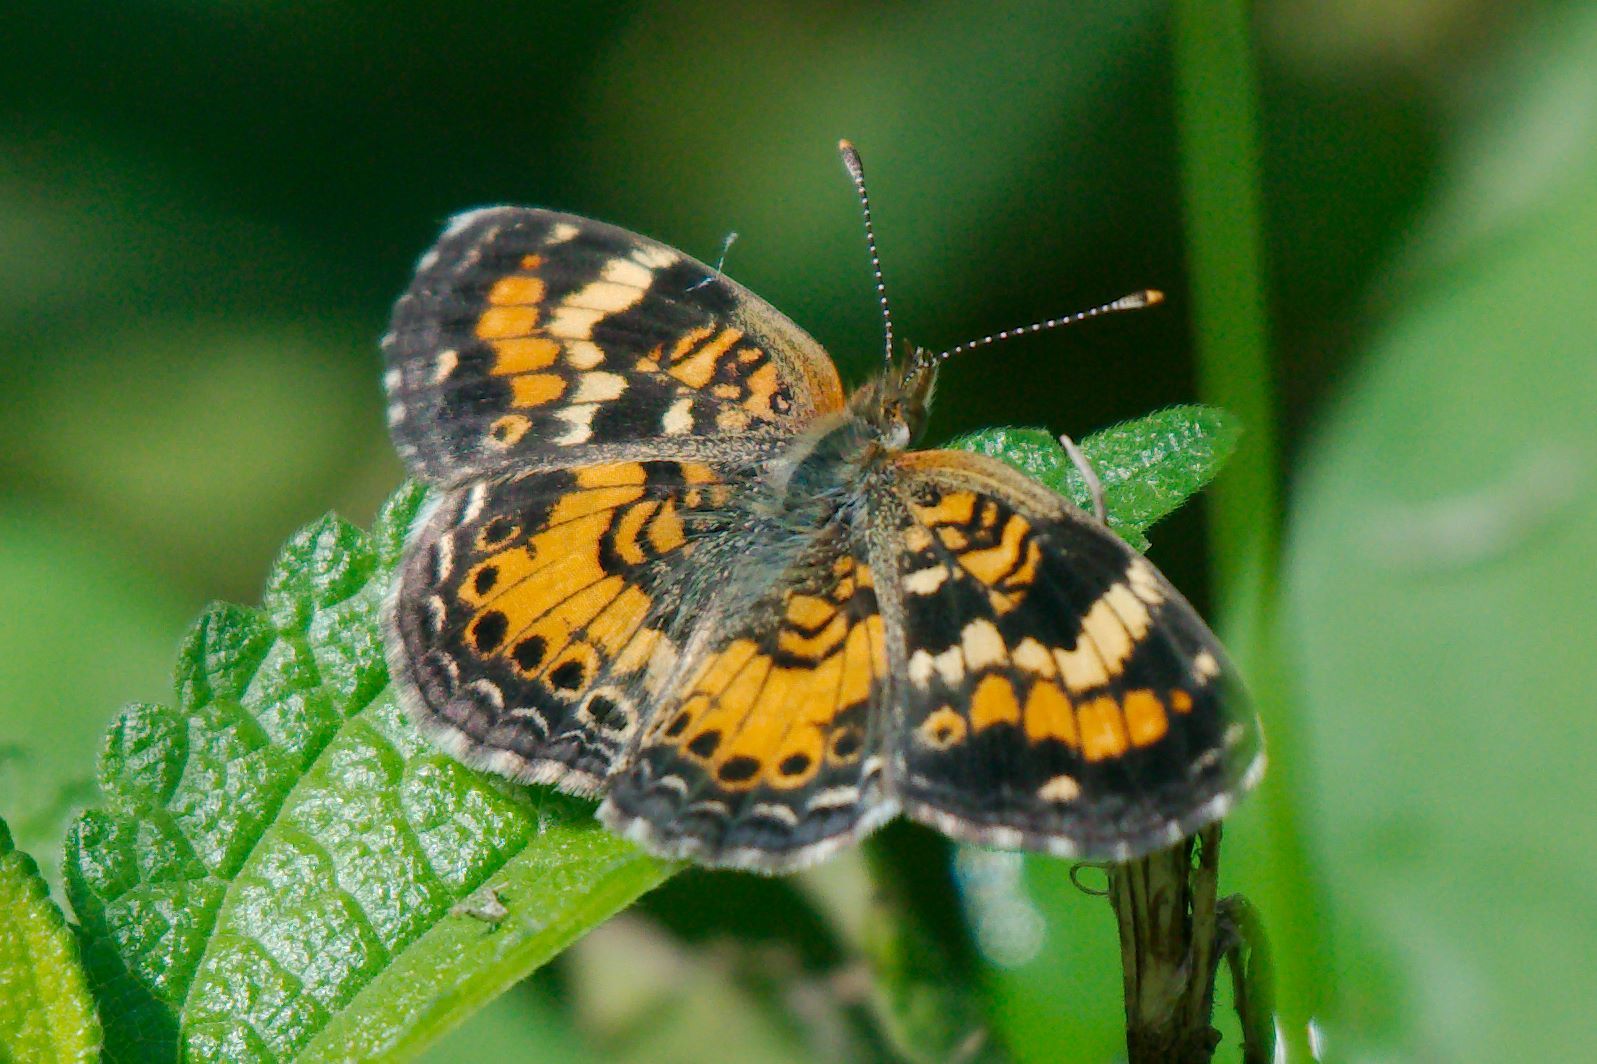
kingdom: Animalia
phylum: Arthropoda
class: Insecta
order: Lepidoptera
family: Nymphalidae
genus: Phyciodes
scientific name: Phyciodes phaon
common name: Phaon crescent
